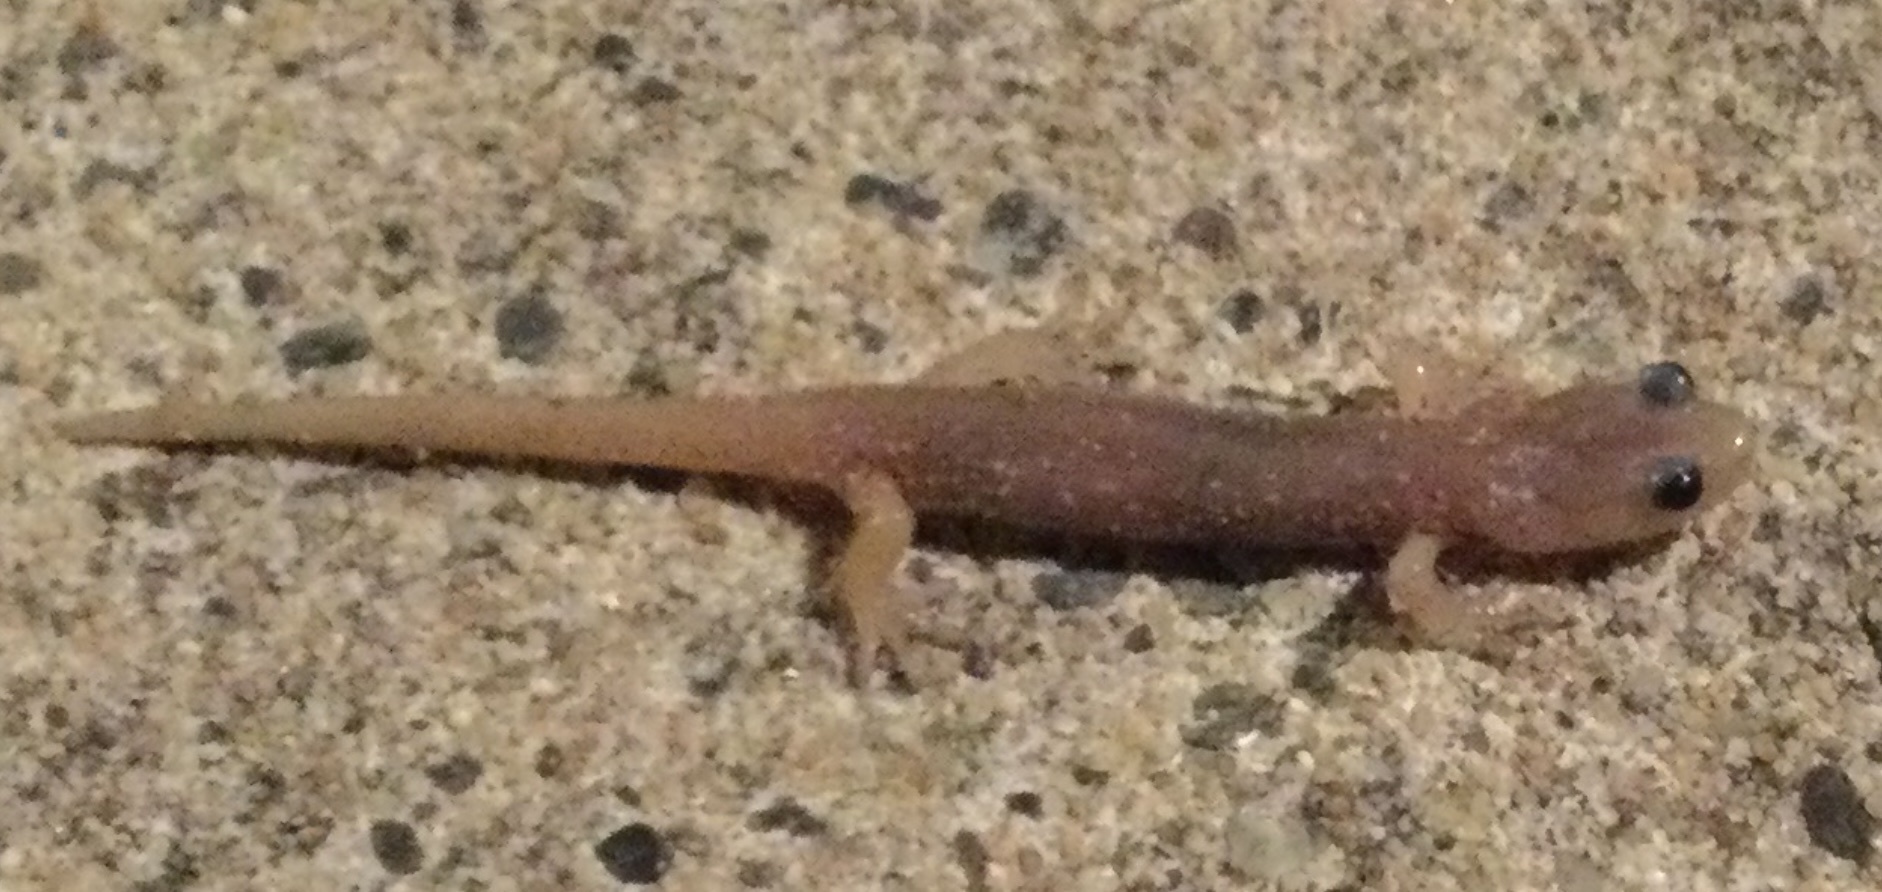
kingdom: Animalia
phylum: Chordata
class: Amphibia
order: Caudata
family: Plethodontidae
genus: Aneides
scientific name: Aneides lugubris
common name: Arboreal salamander
